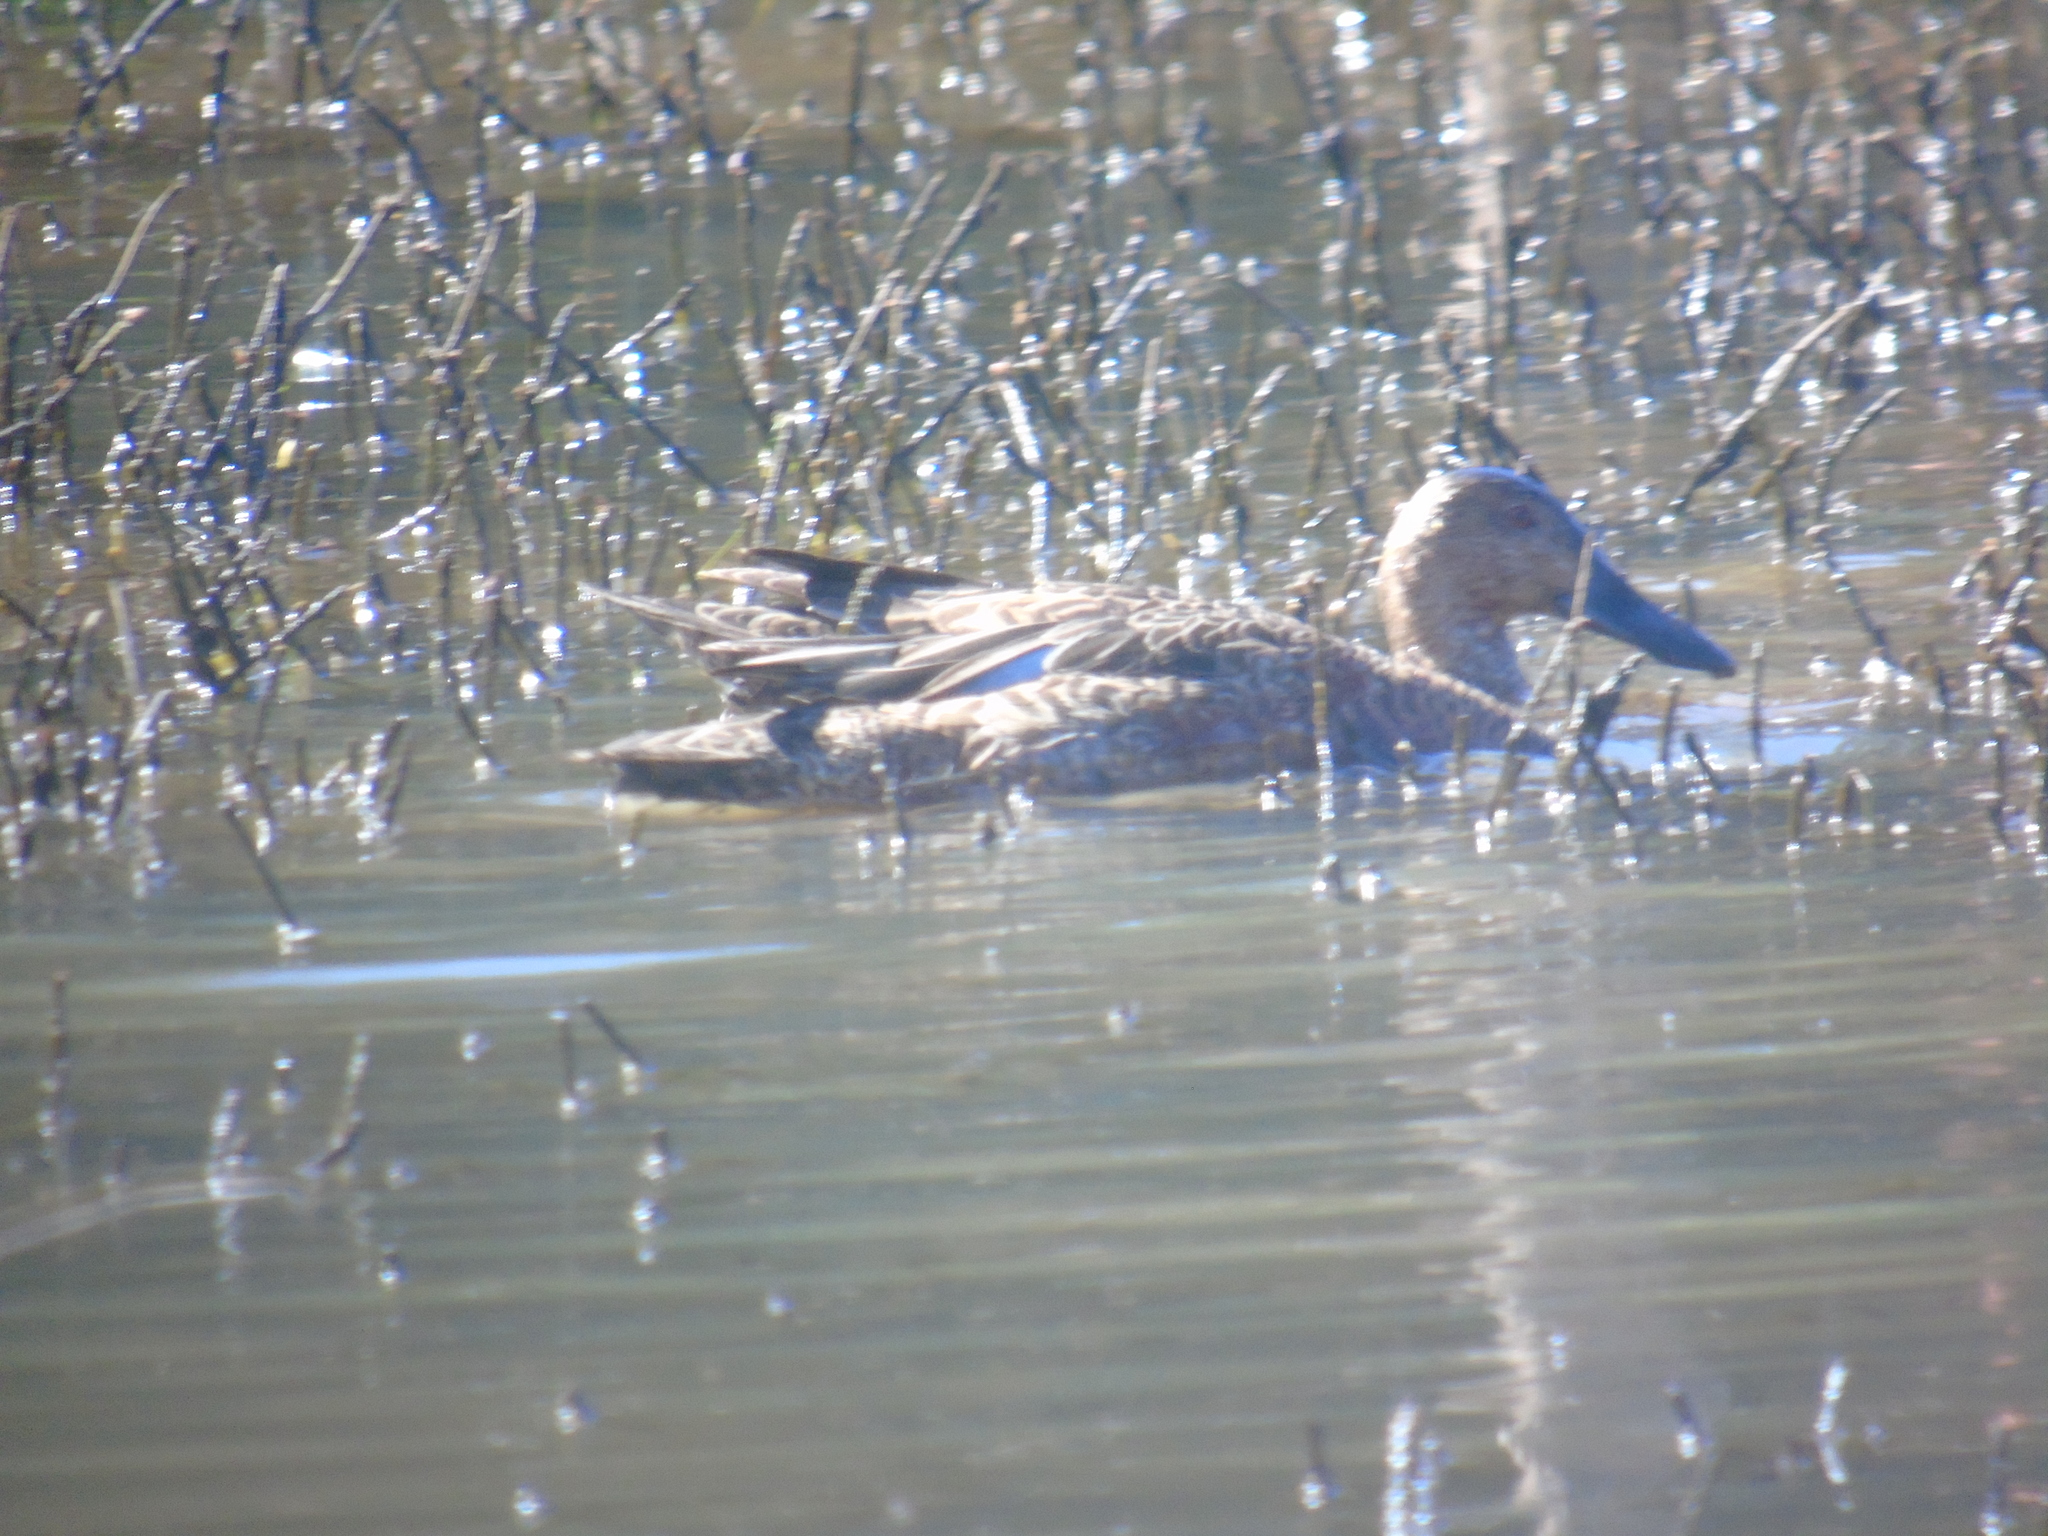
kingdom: Animalia
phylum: Chordata
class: Aves
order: Anseriformes
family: Anatidae
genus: Spatula
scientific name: Spatula cyanoptera
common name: Cinnamon teal
